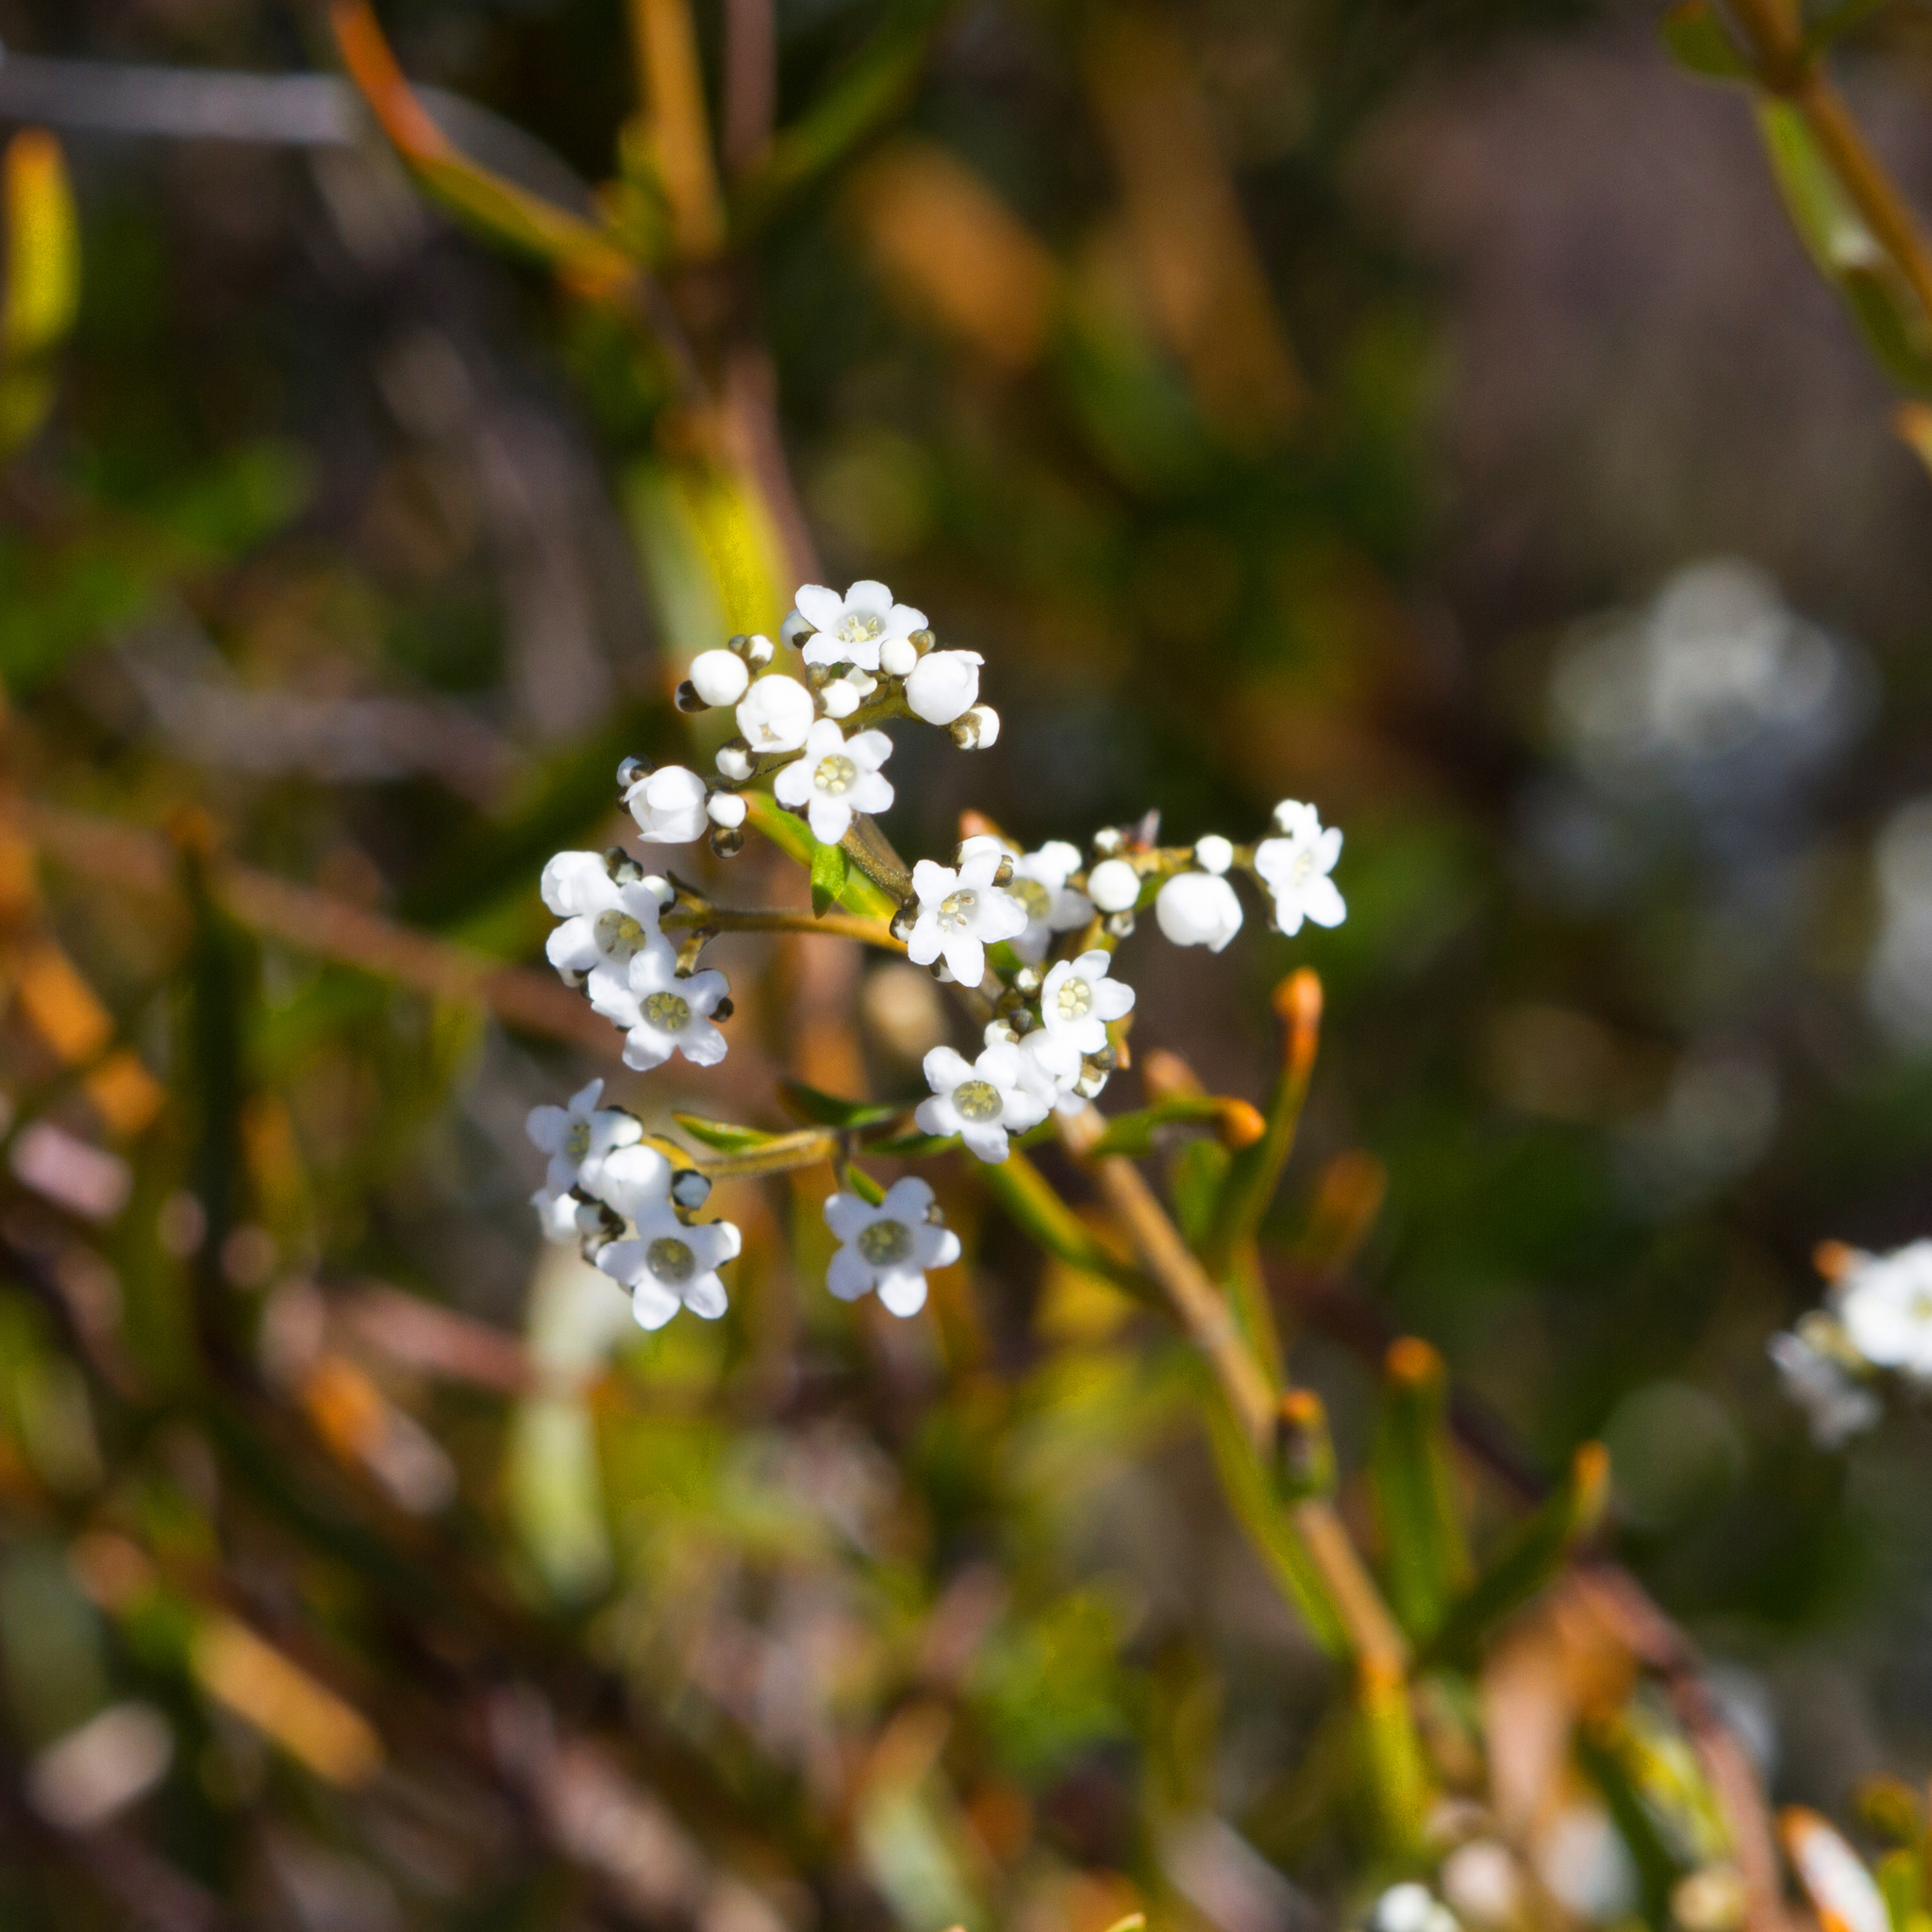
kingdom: Plantae
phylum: Tracheophyta
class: Magnoliopsida
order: Gentianales
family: Loganiaceae
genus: Logania
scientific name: Logania linifolia
